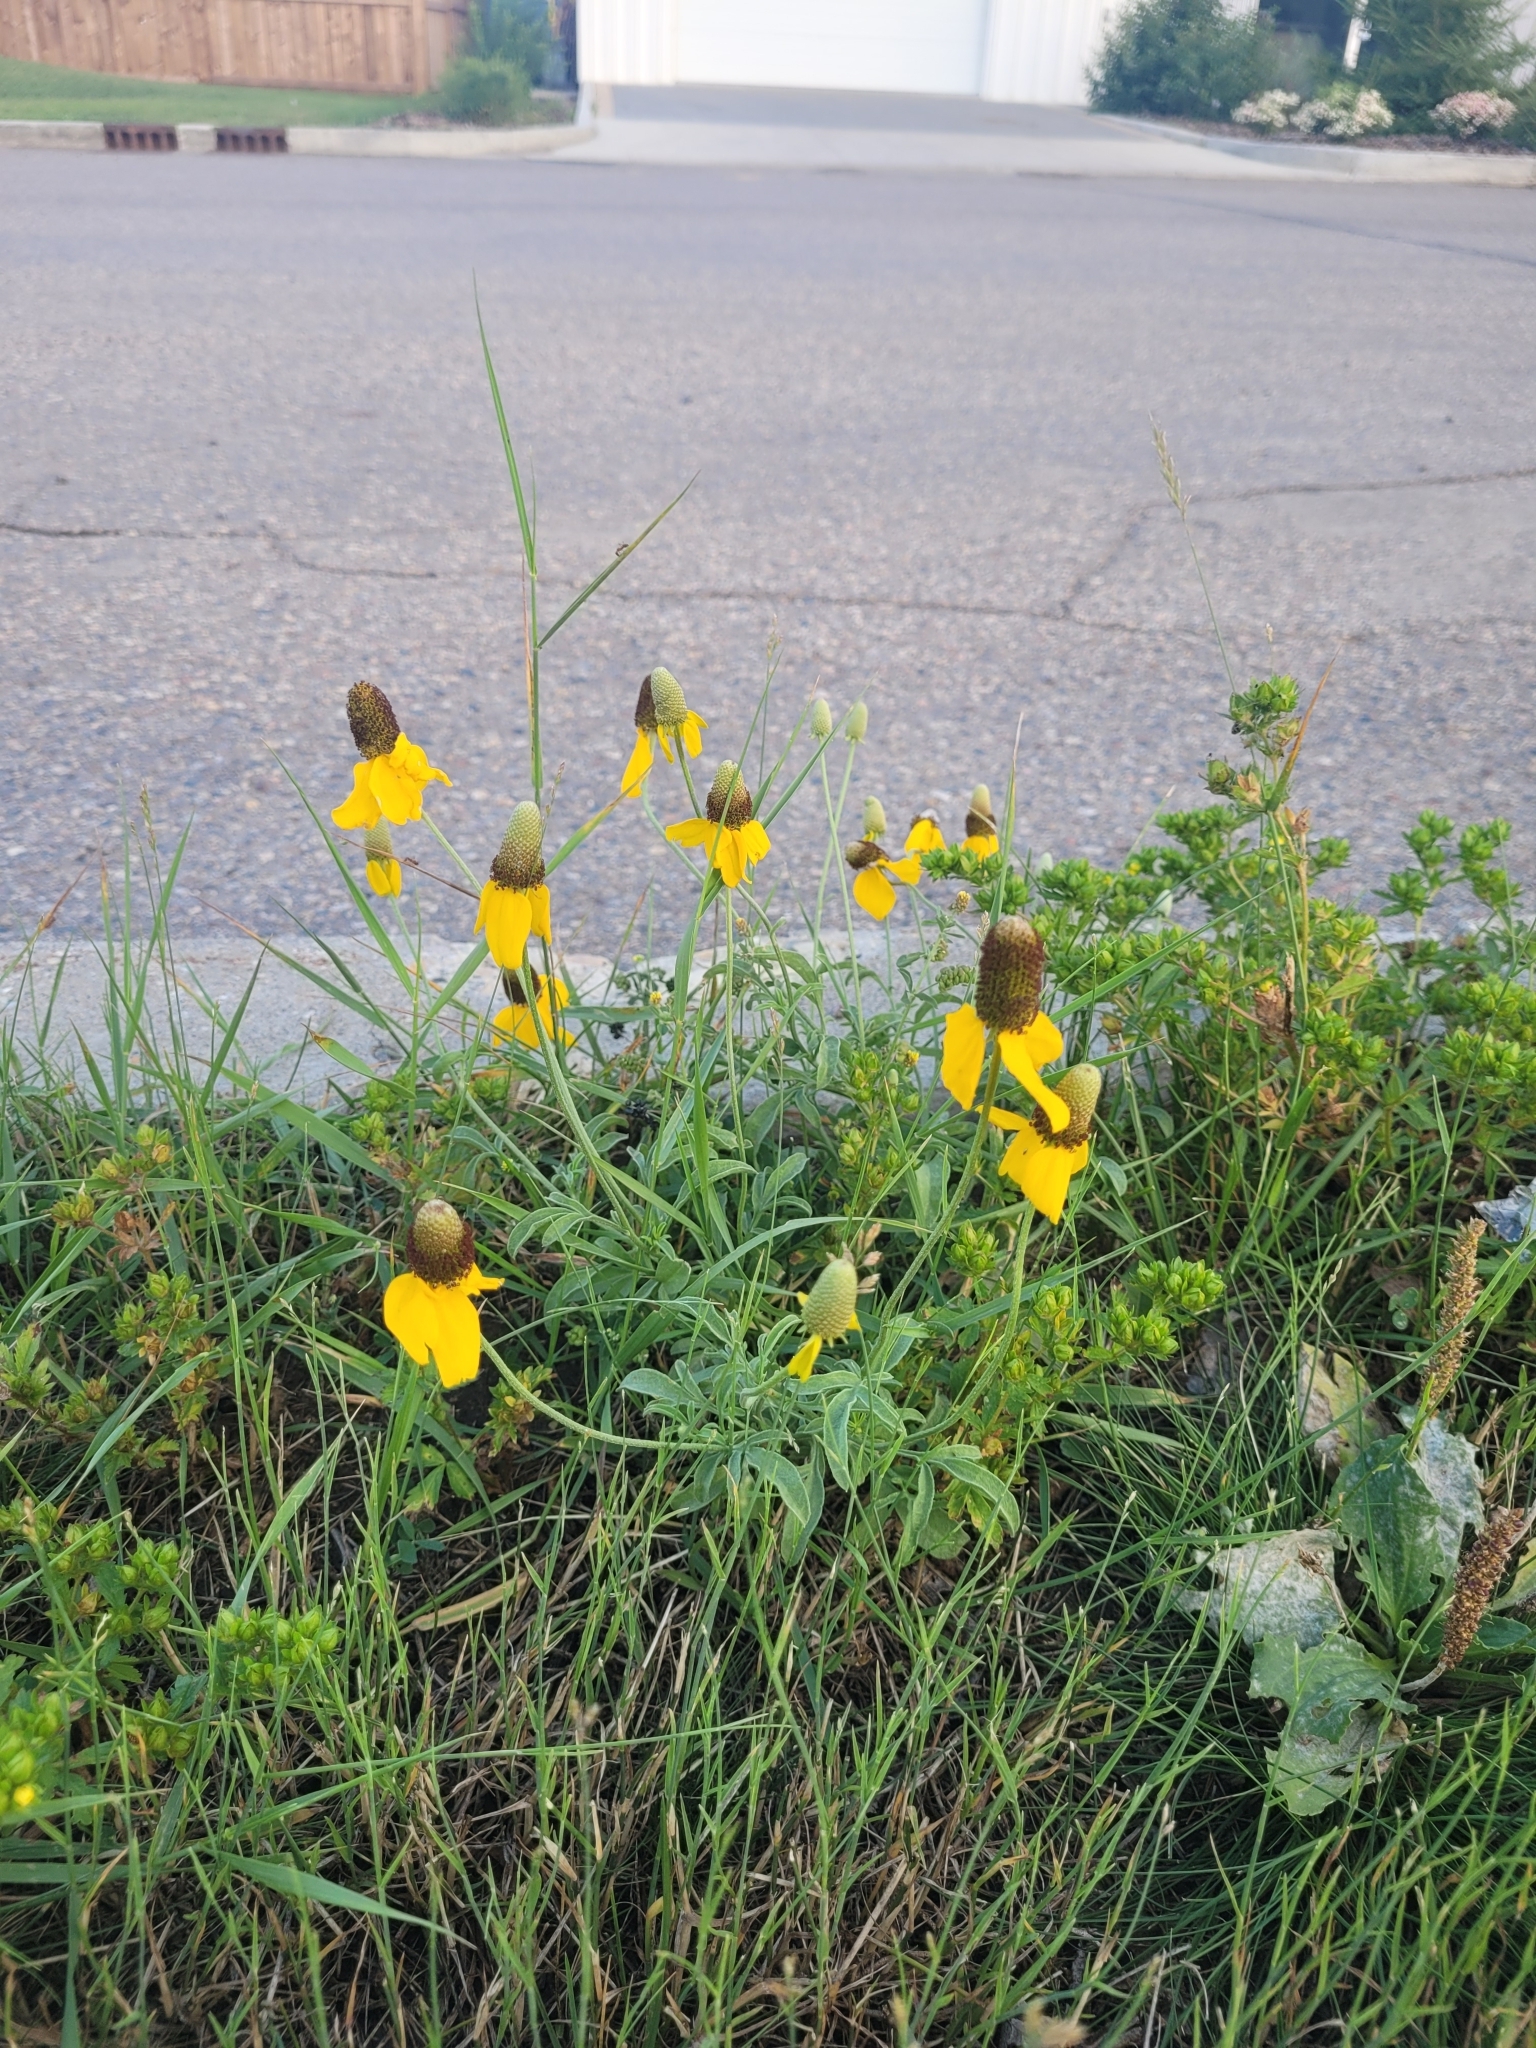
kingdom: Plantae
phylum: Tracheophyta
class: Magnoliopsida
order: Asterales
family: Asteraceae
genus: Ratibida
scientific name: Ratibida columnifera
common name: Prairie coneflower
